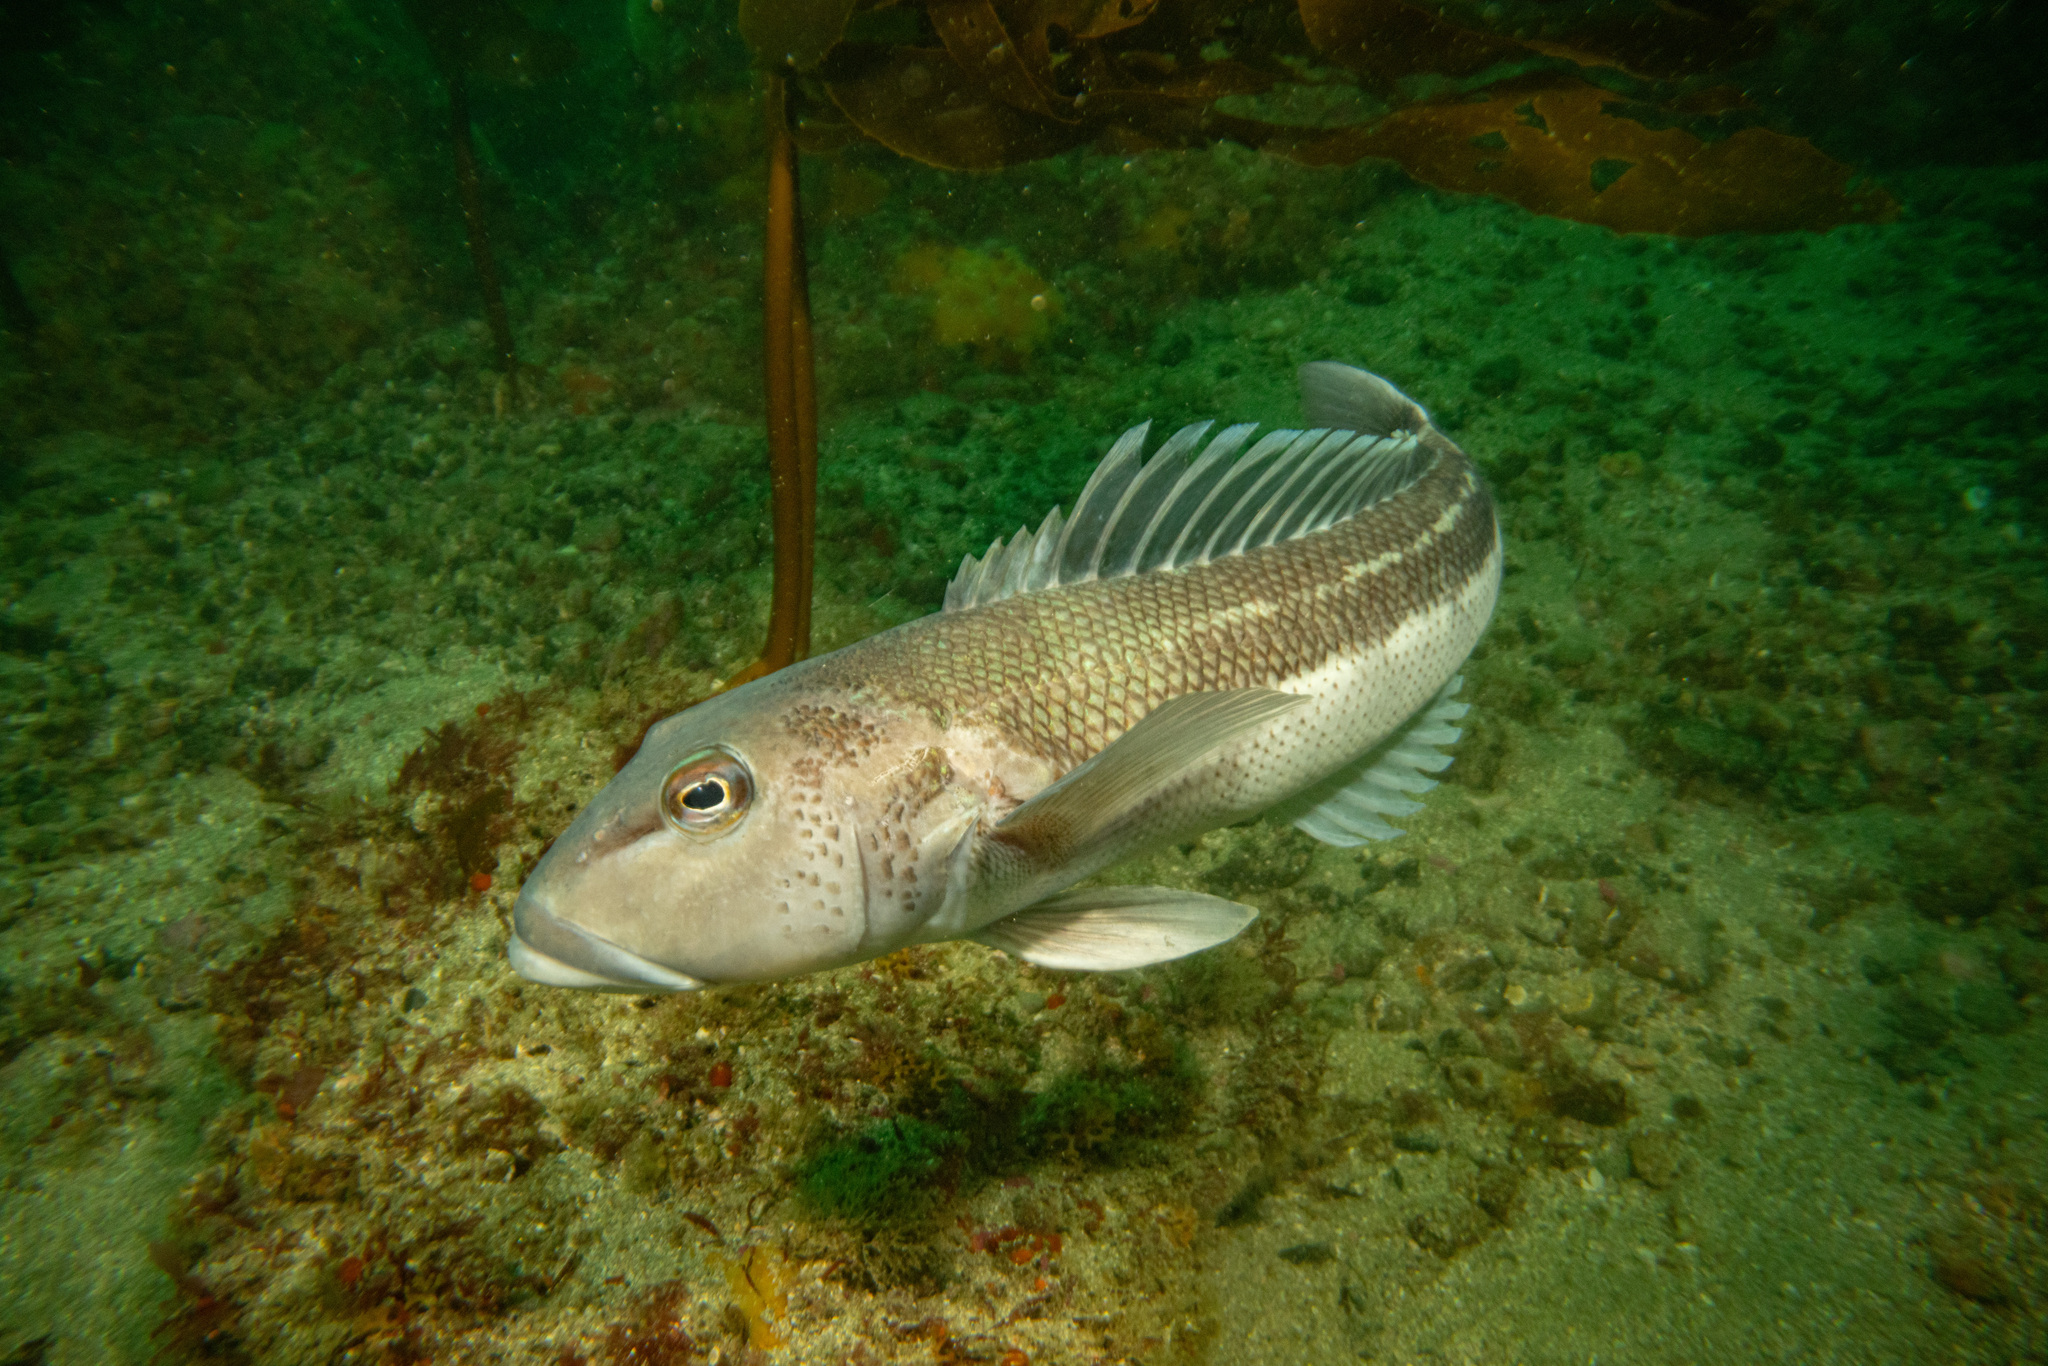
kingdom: Animalia
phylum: Chordata
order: Perciformes
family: Pinguipedidae
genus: Parapercis
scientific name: Parapercis colias
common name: Blue cod
